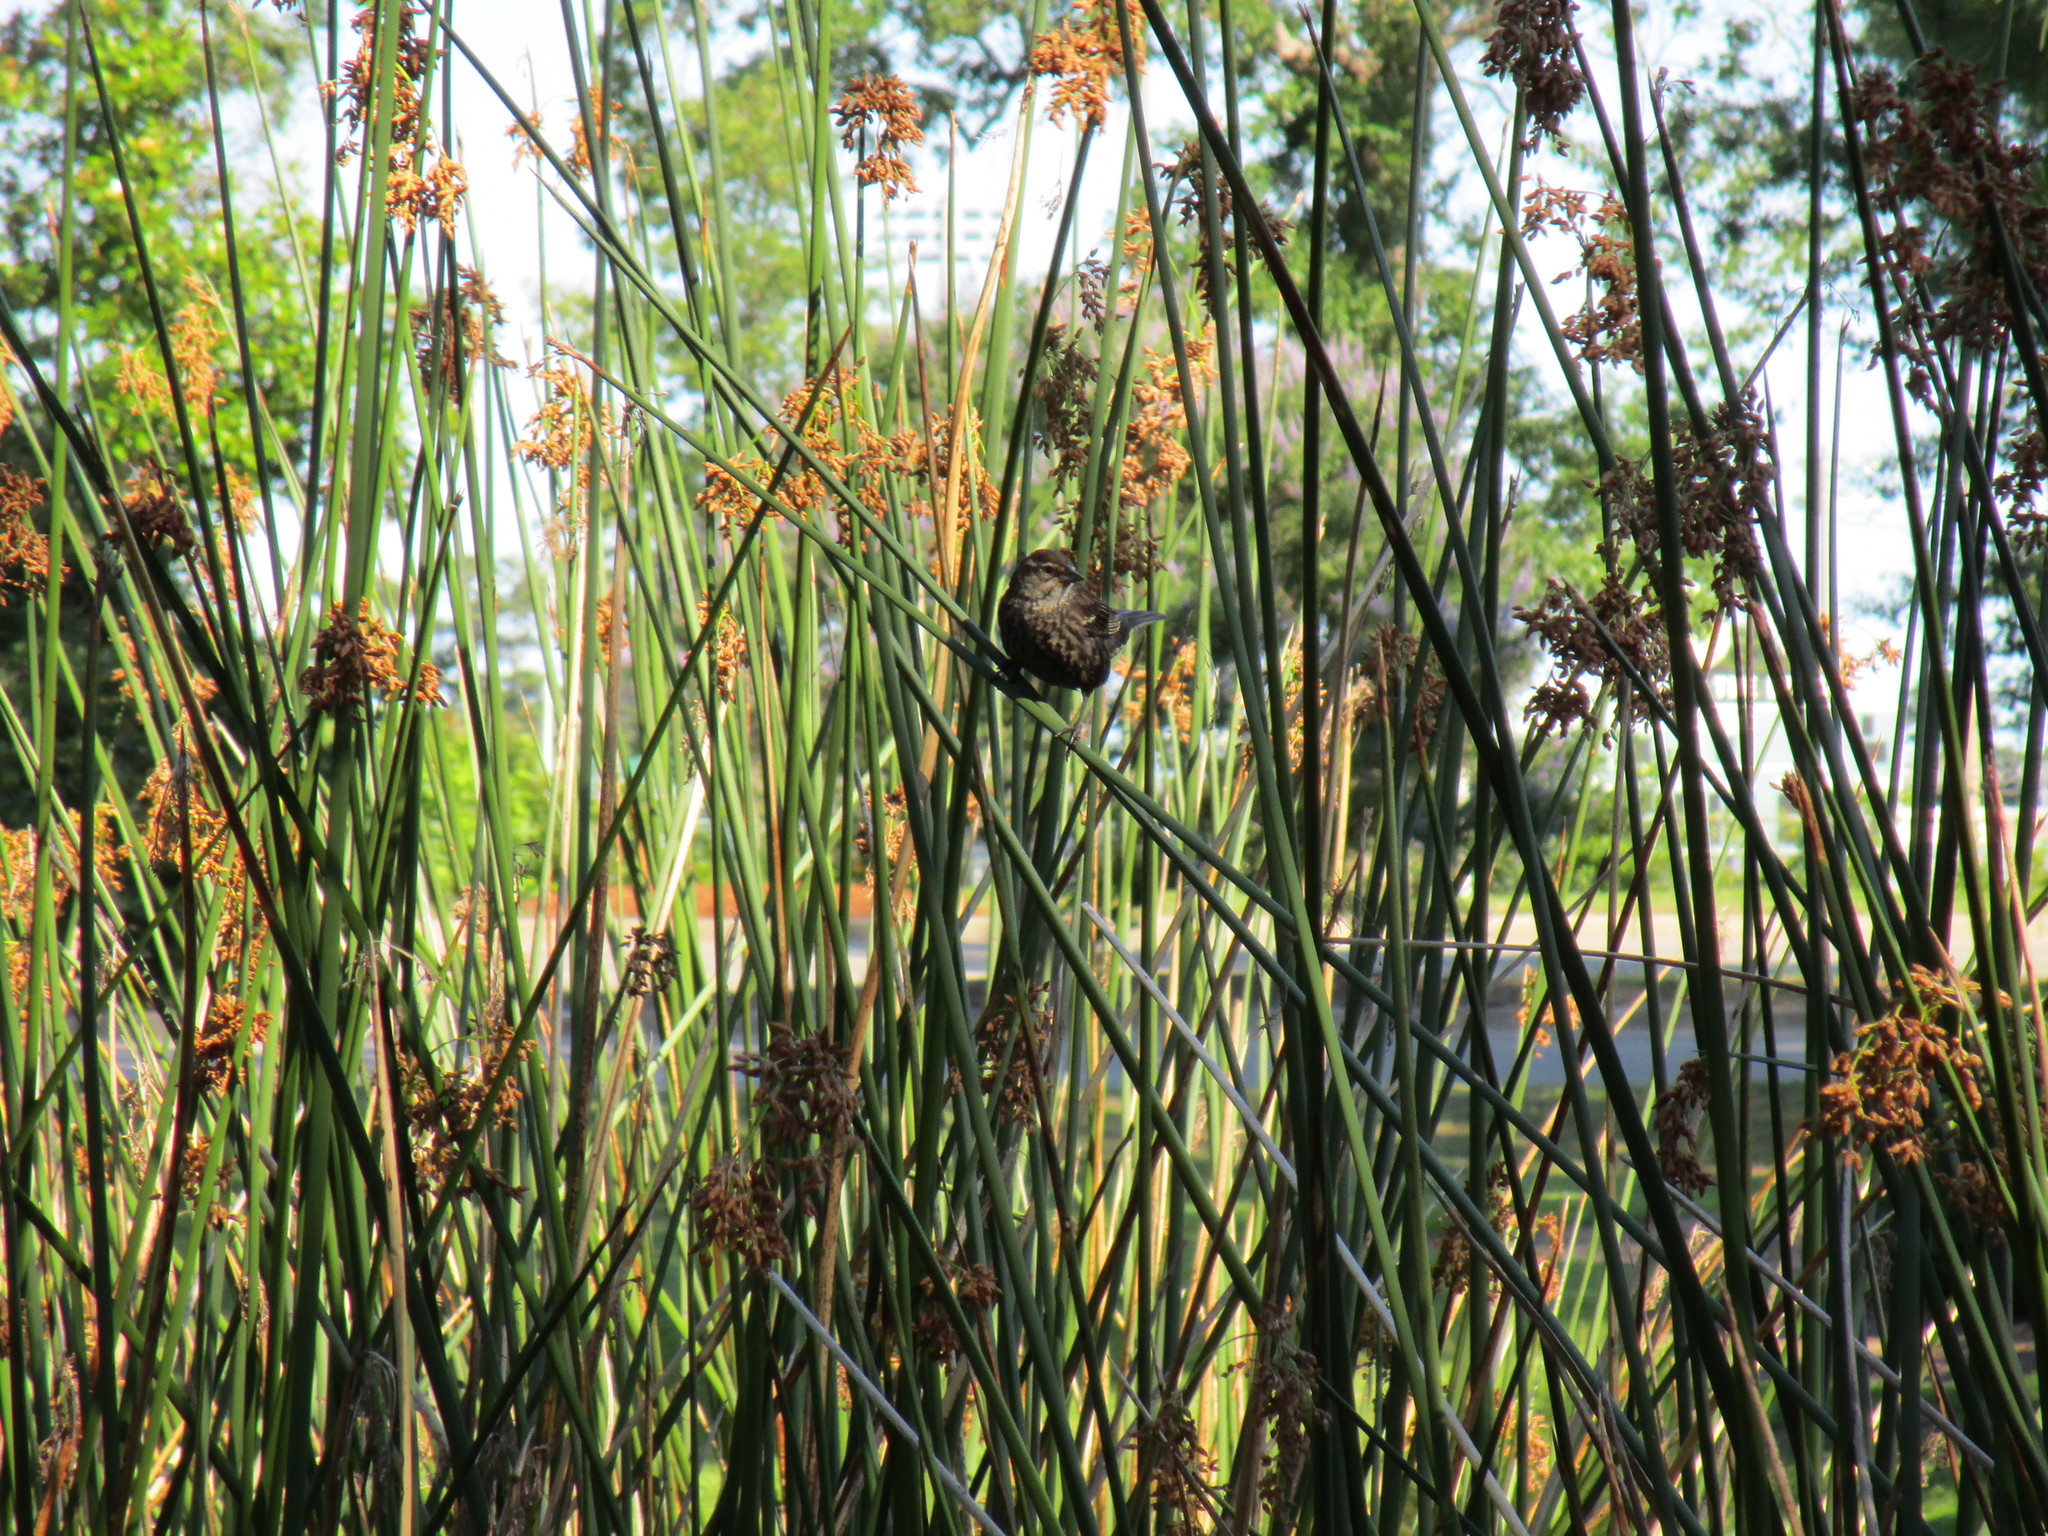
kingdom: Animalia
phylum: Chordata
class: Aves
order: Passeriformes
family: Icteridae
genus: Agelaius
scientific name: Agelaius phoeniceus
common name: Red-winged blackbird
